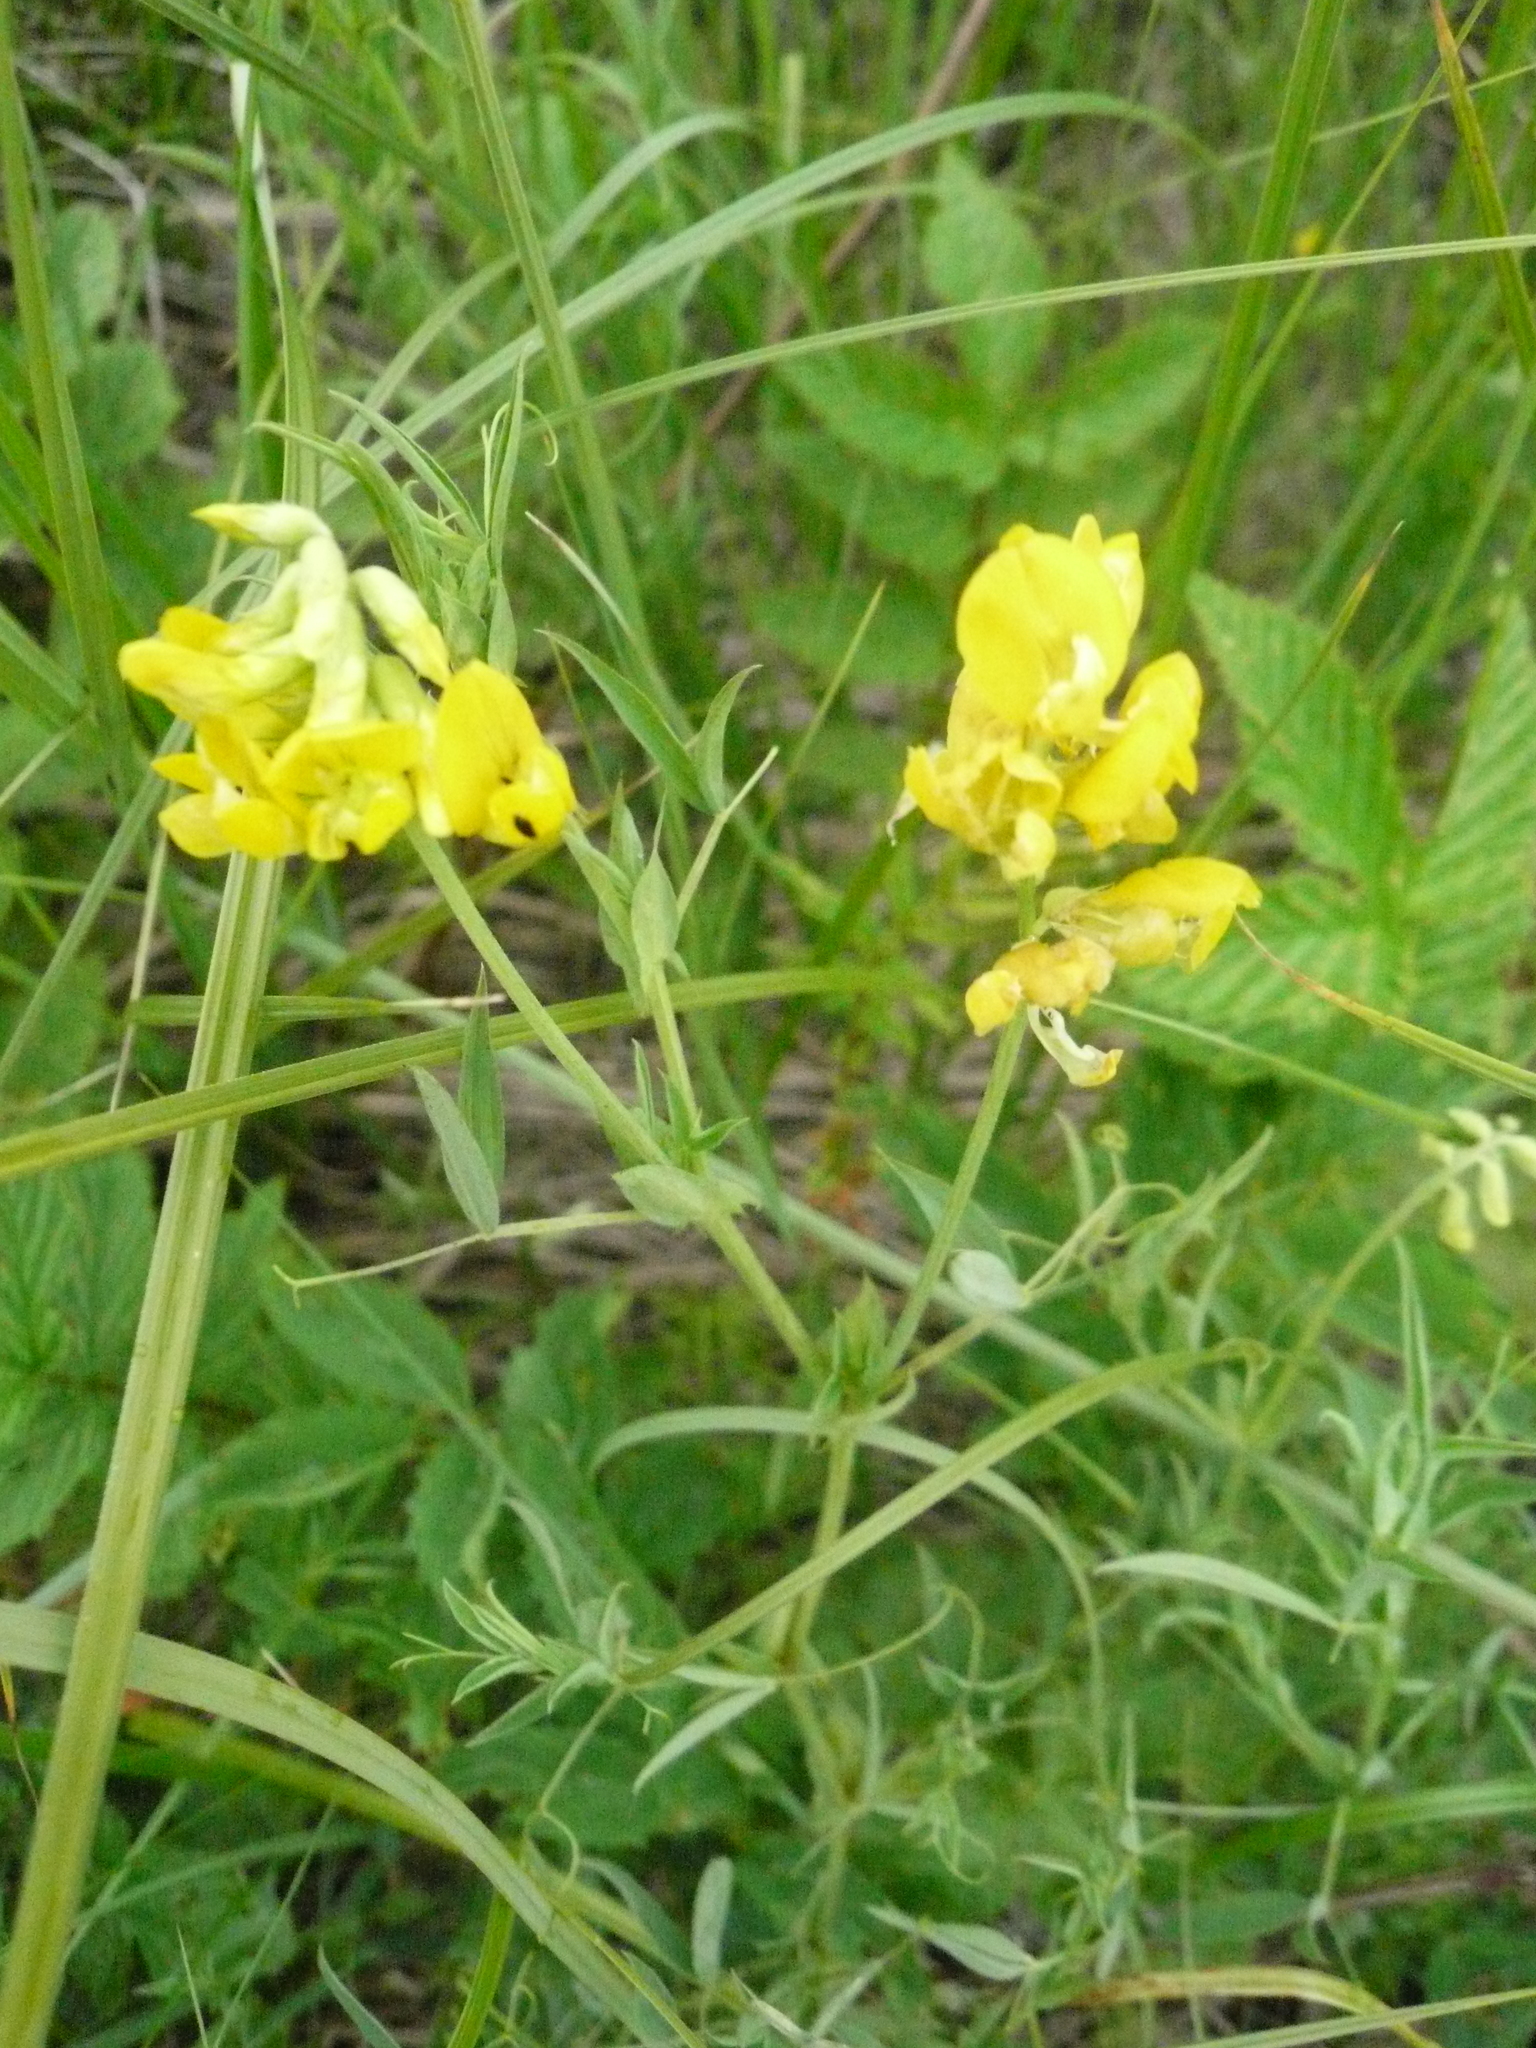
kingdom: Plantae
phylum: Tracheophyta
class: Magnoliopsida
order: Fabales
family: Fabaceae
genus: Lathyrus
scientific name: Lathyrus pratensis
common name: Meadow vetchling
